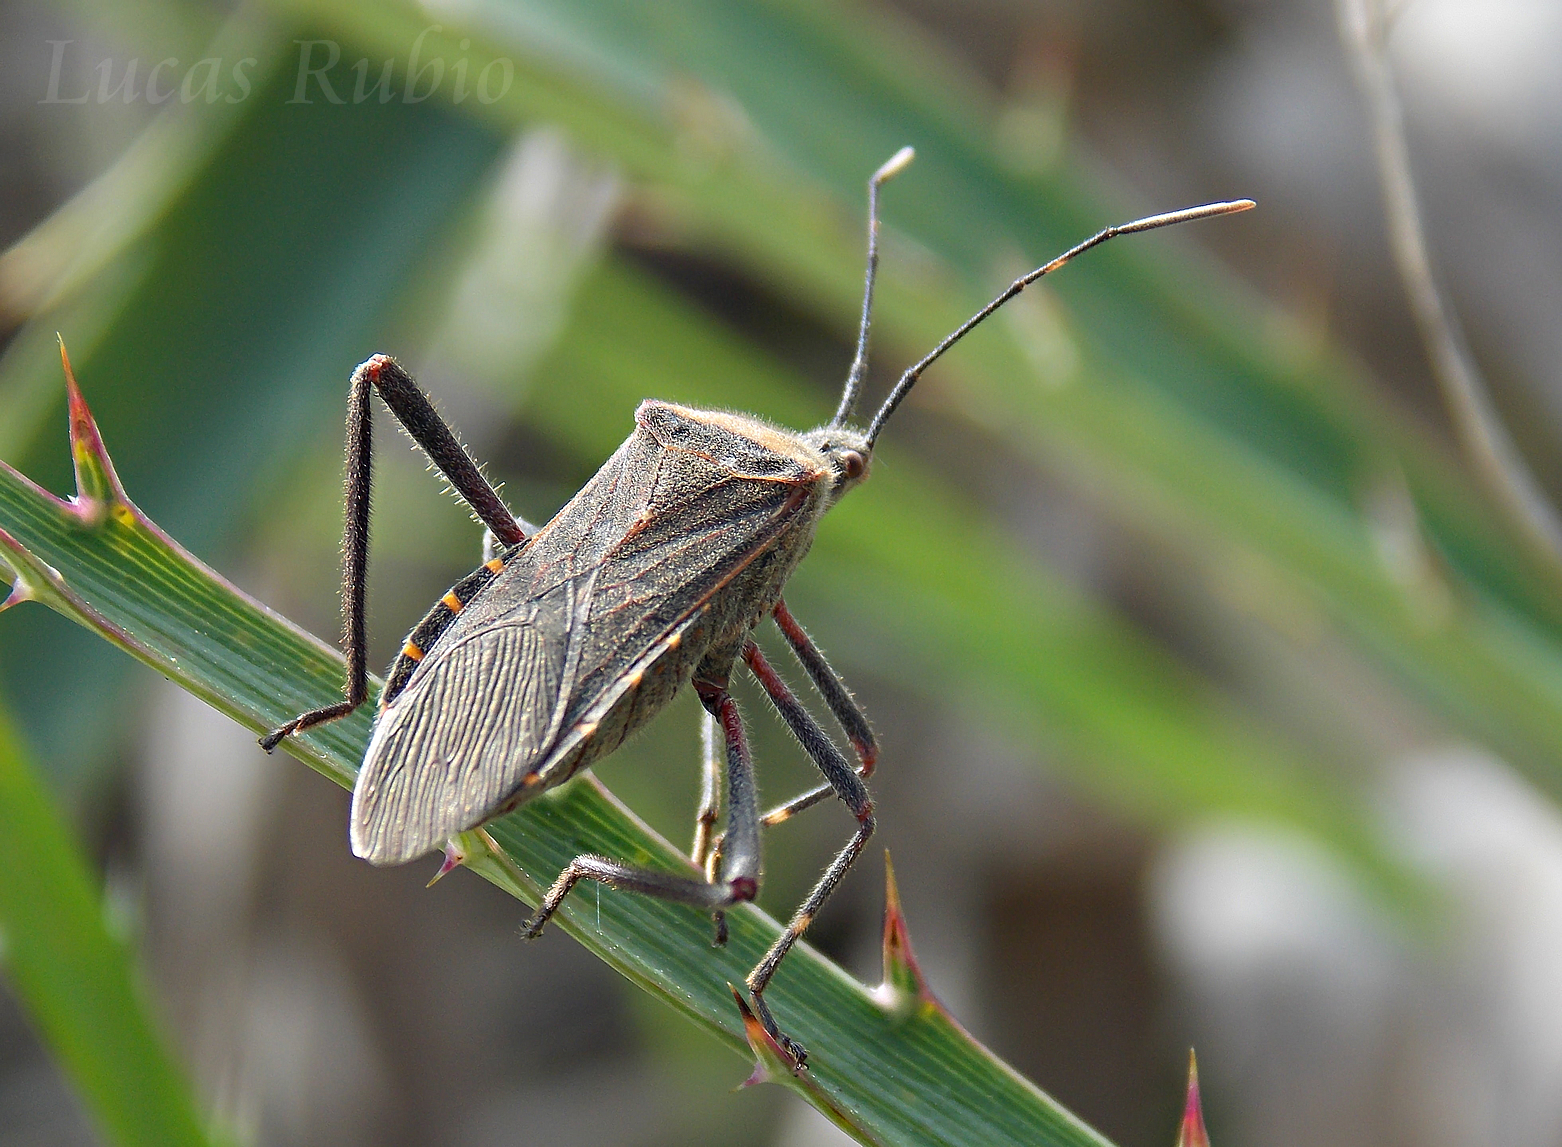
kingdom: Animalia
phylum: Arthropoda
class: Insecta
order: Hemiptera
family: Coreidae
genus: Phthiacnemia
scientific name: Phthiacnemia picta
